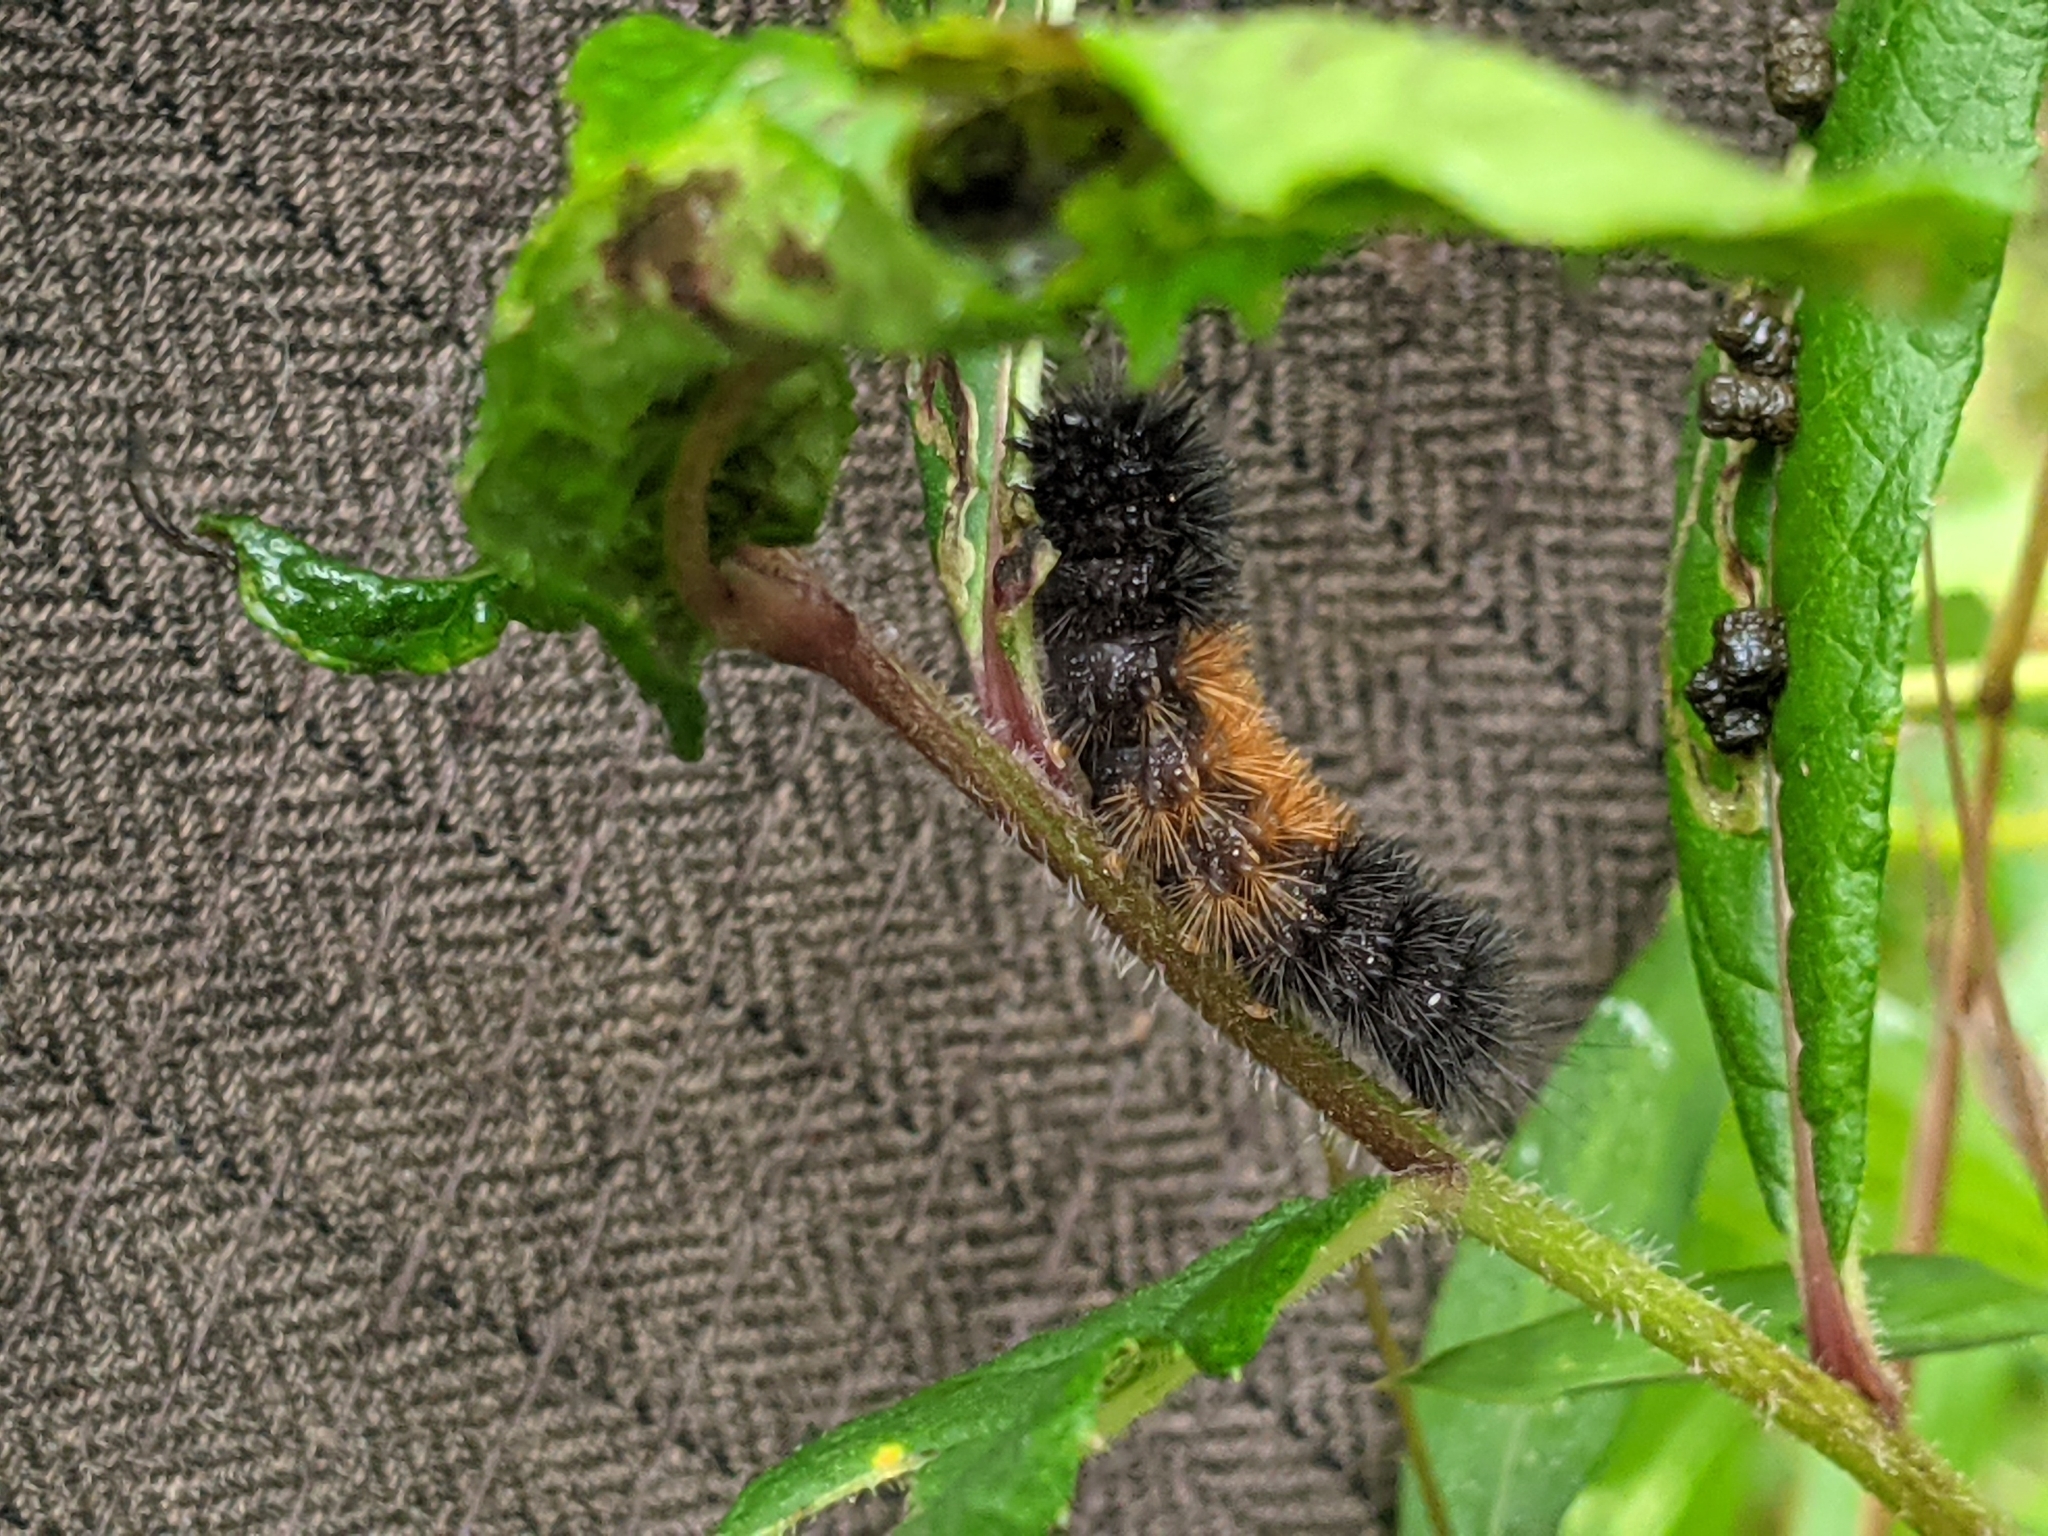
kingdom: Animalia
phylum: Arthropoda
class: Insecta
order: Lepidoptera
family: Erebidae
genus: Pyrrharctia
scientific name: Pyrrharctia isabella
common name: Isabella tiger moth
